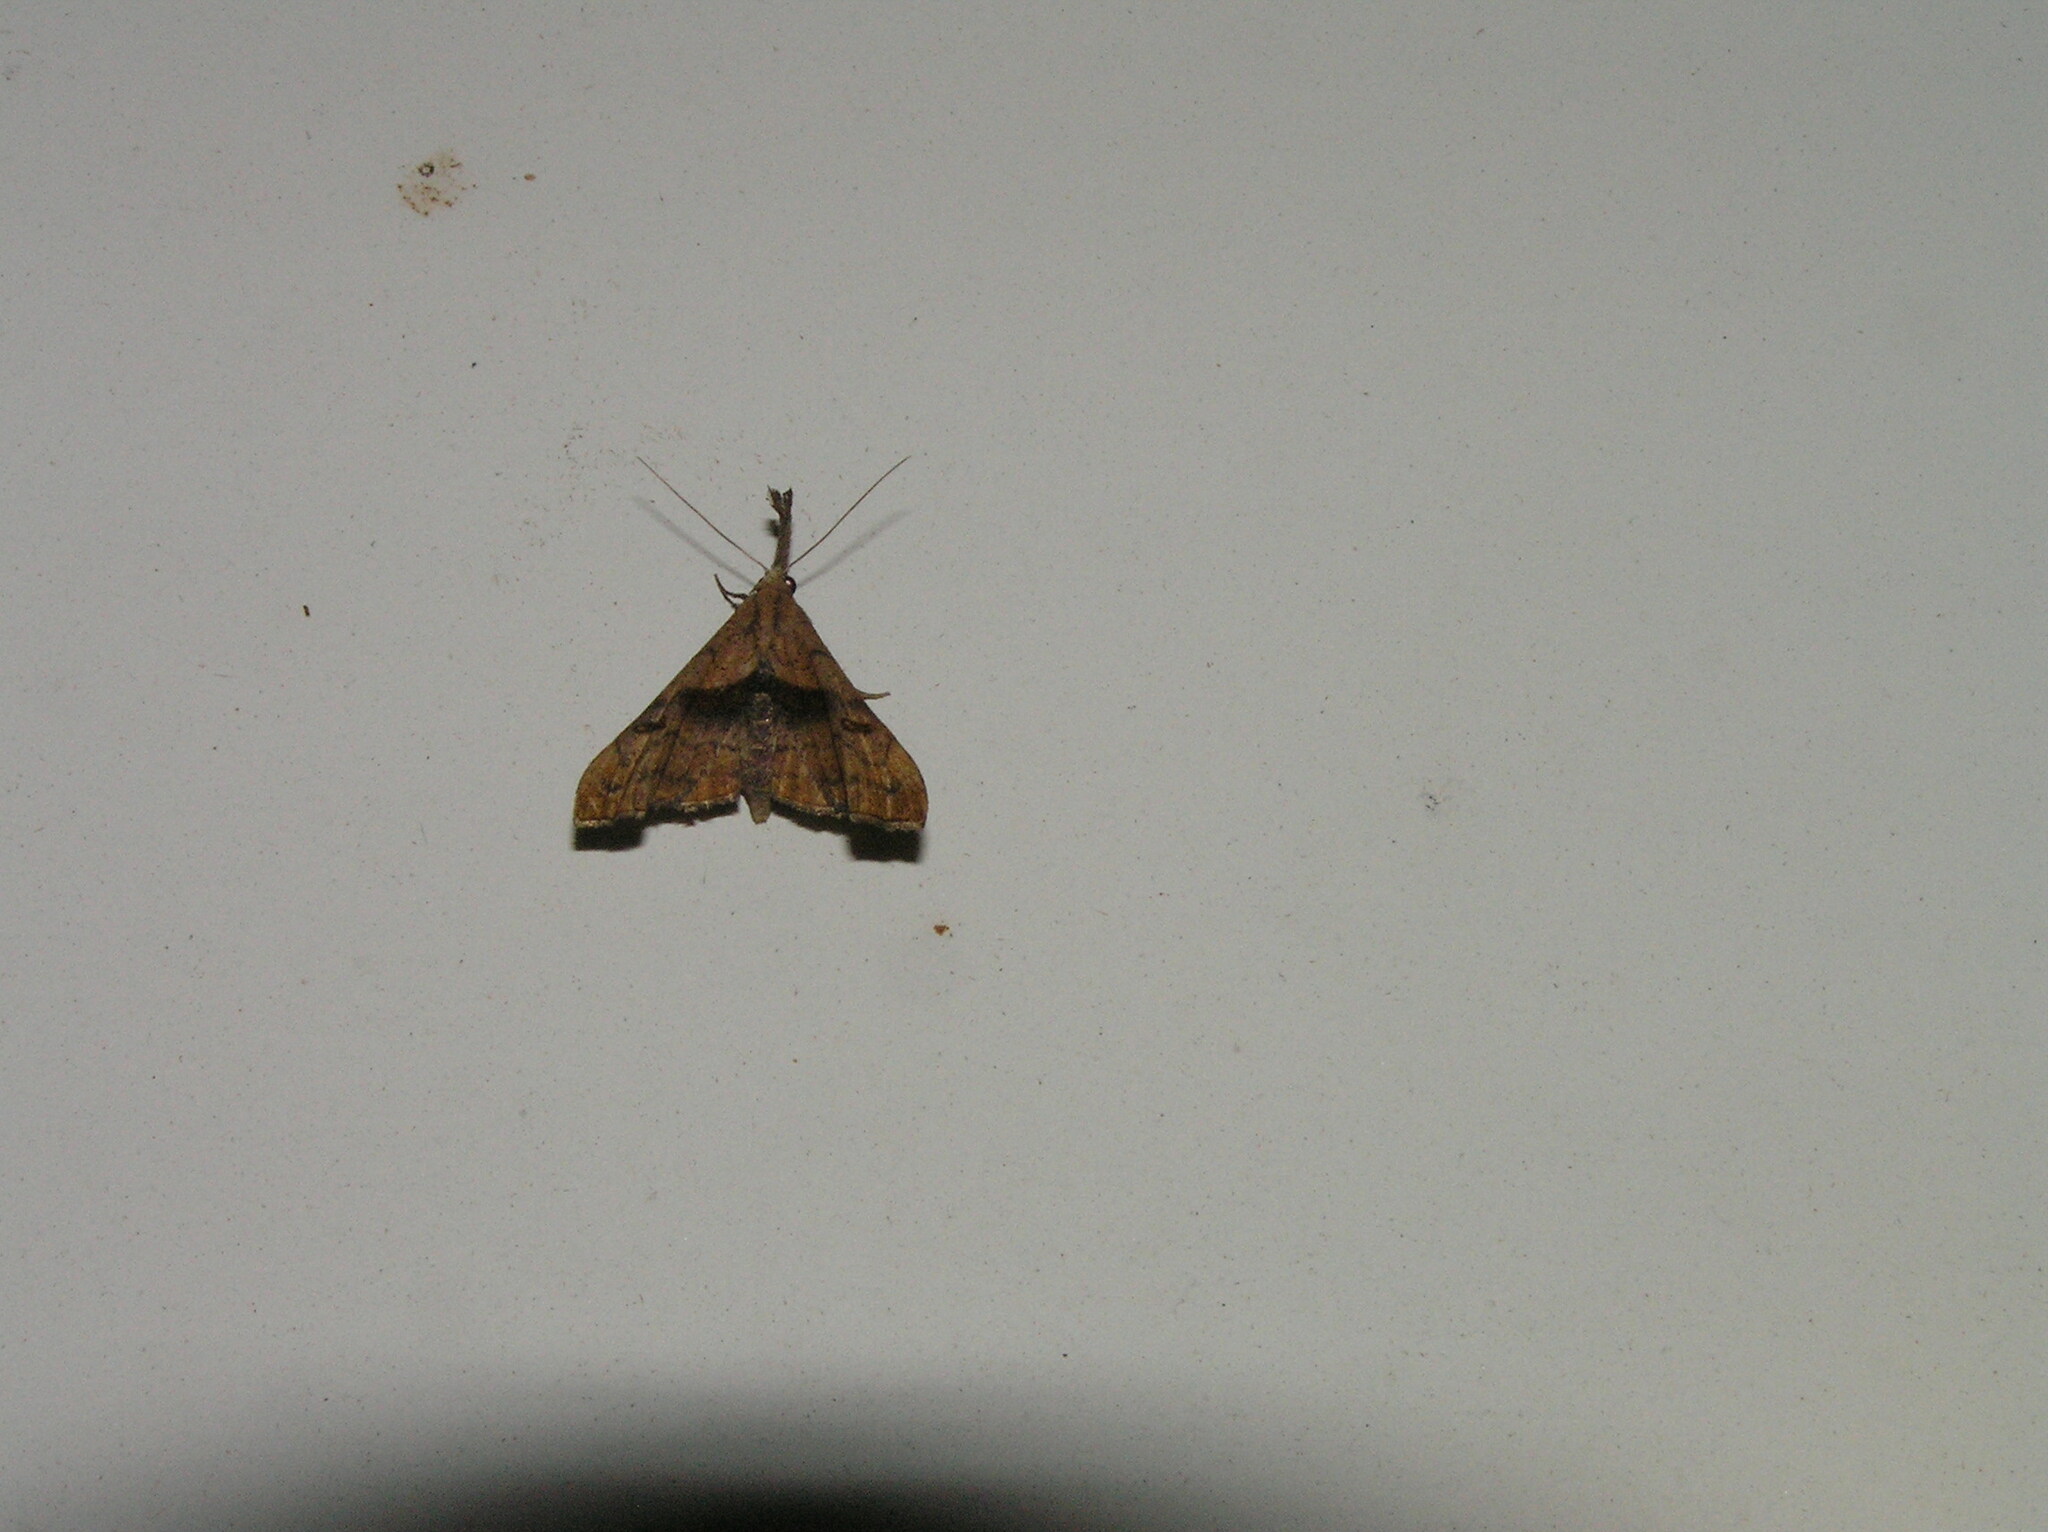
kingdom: Animalia
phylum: Arthropoda
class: Insecta
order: Lepidoptera
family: Erebidae
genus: Palthis
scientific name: Palthis angulalis
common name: Dark-spotted palthis moth
